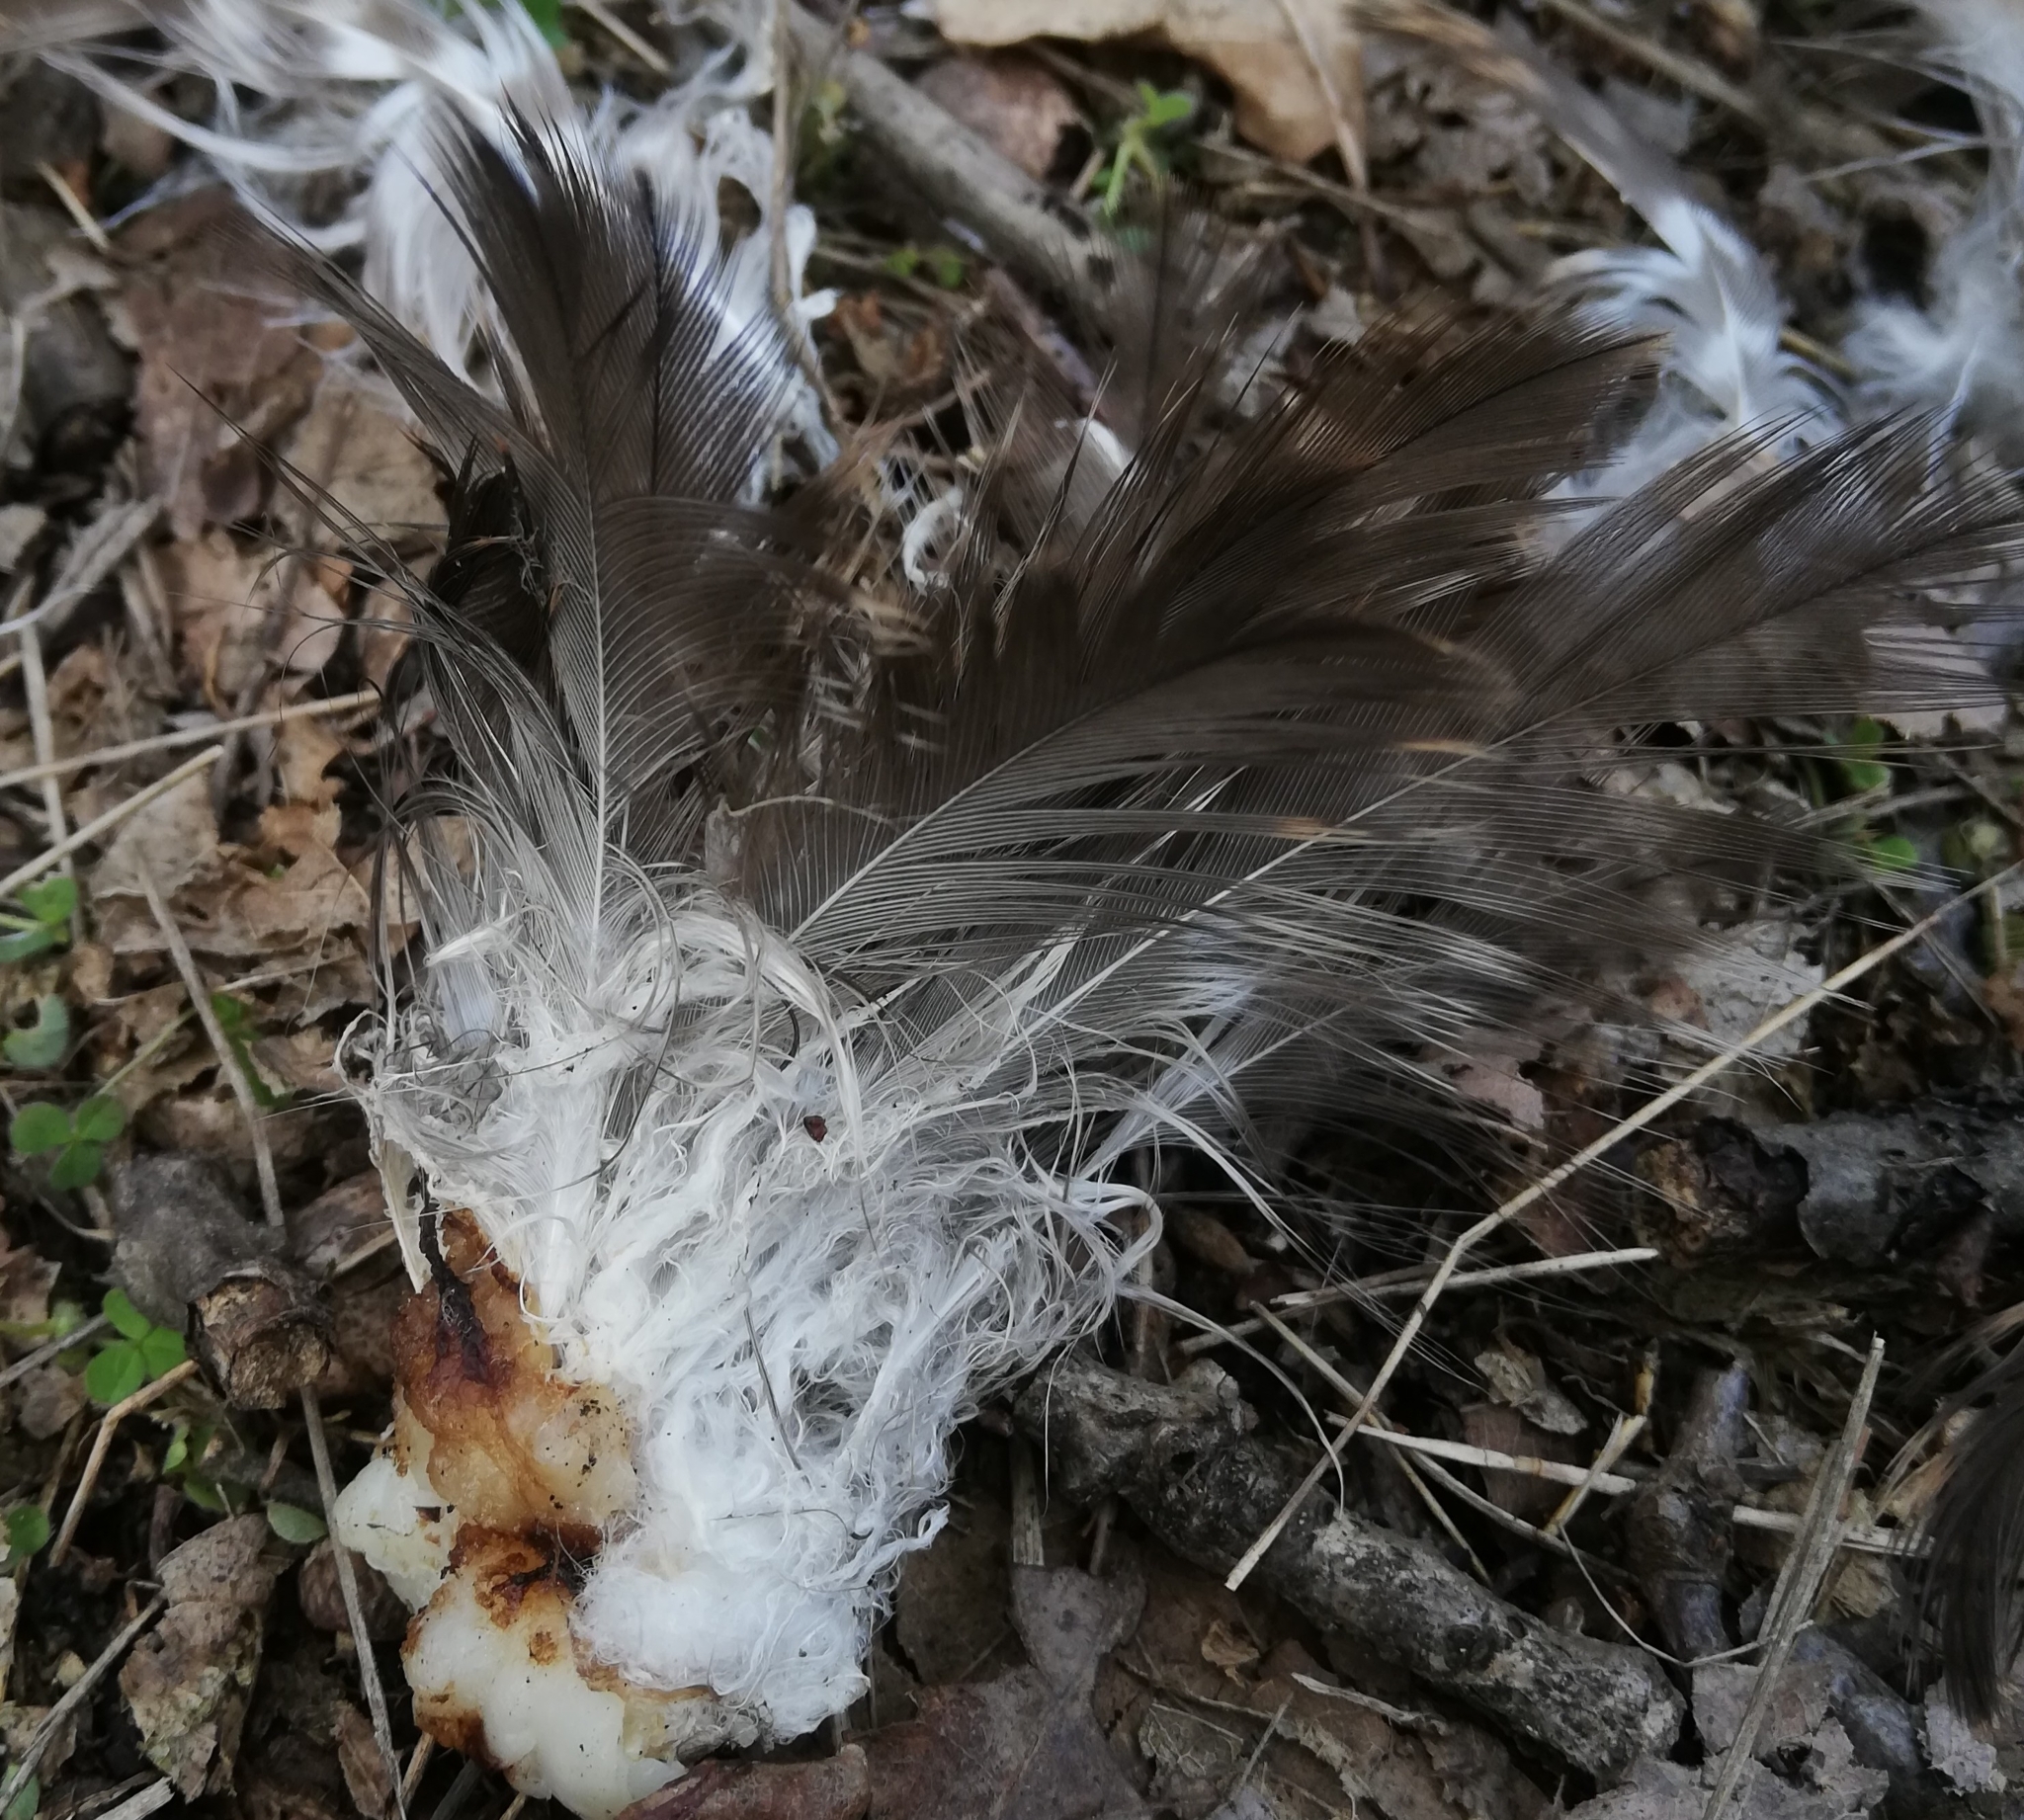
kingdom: Animalia
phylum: Chordata
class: Aves
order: Accipitriformes
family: Accipitridae
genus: Buteo
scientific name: Buteo buteo
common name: Common buzzard
